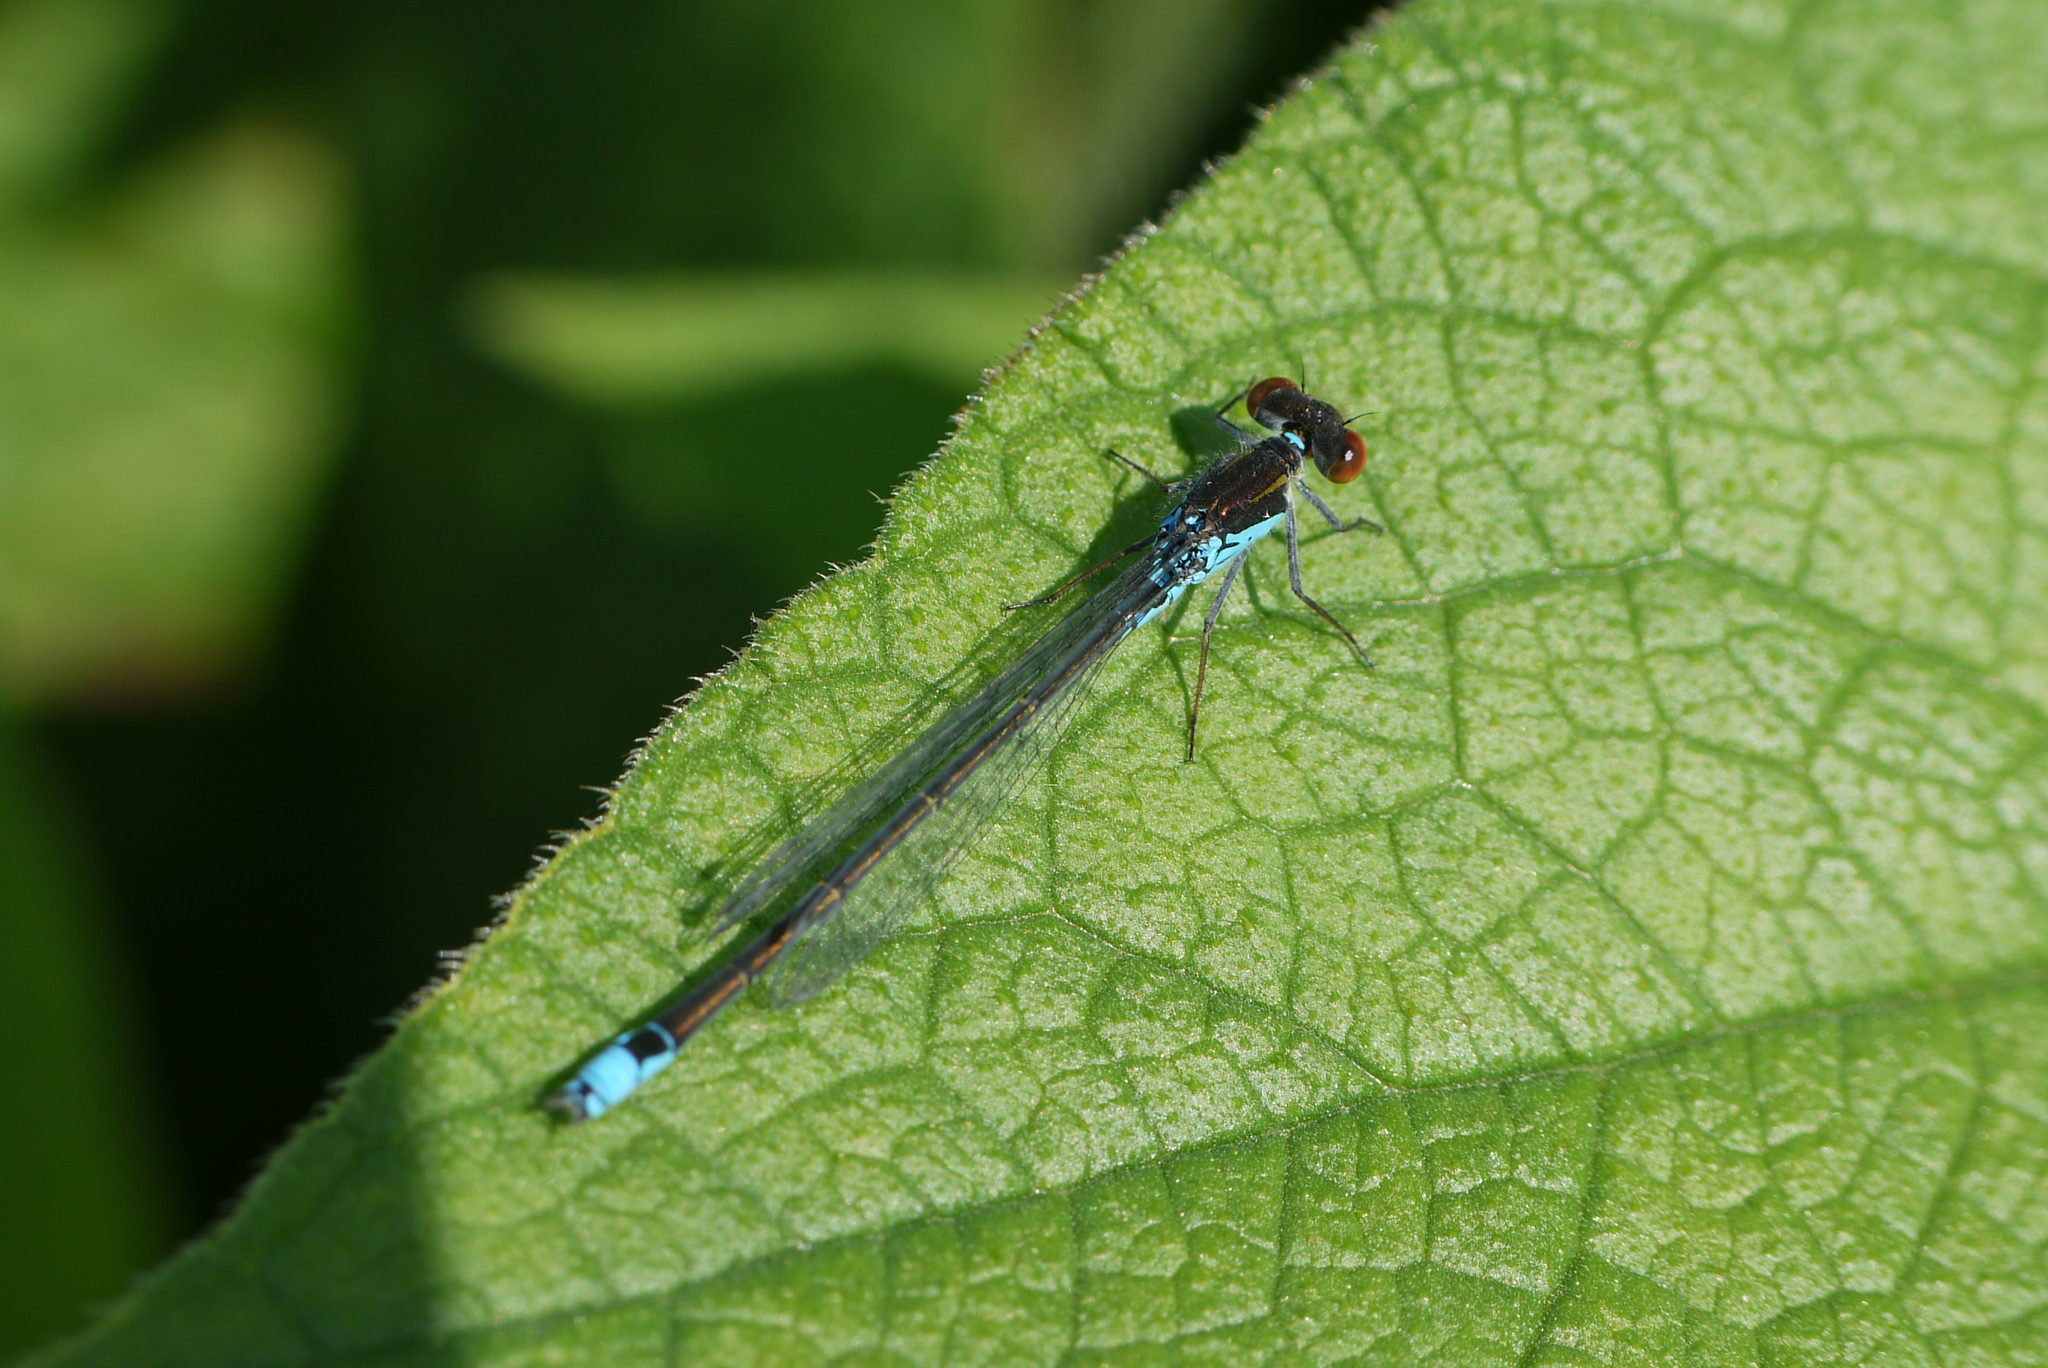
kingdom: Animalia
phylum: Arthropoda
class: Insecta
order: Odonata
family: Coenagrionidae
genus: Erythromma
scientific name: Erythromma viridulum
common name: Small red-eyed damselfly
